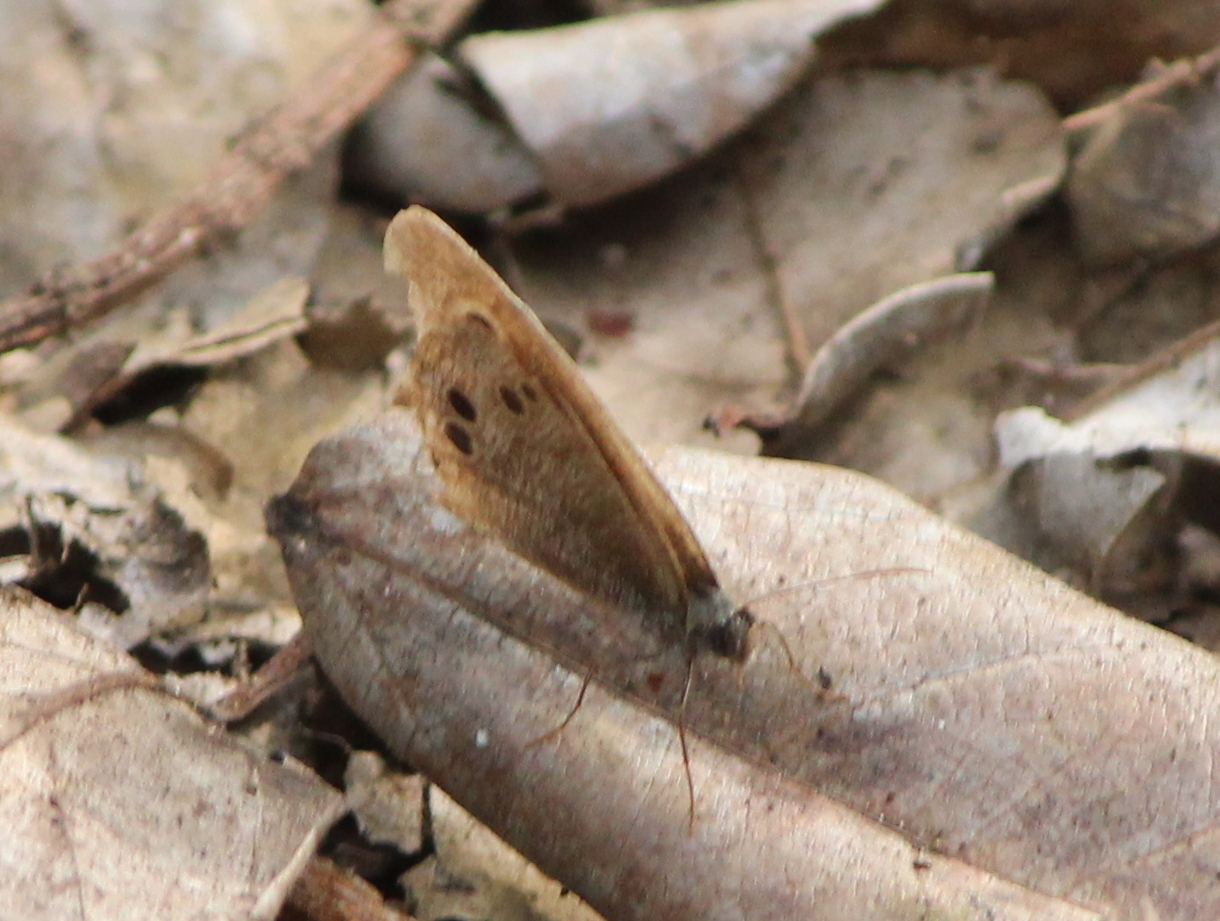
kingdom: Animalia
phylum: Arthropoda
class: Insecta
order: Lepidoptera
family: Nymphalidae
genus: Ypthima
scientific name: Ypthima baldus
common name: Common five-ring
